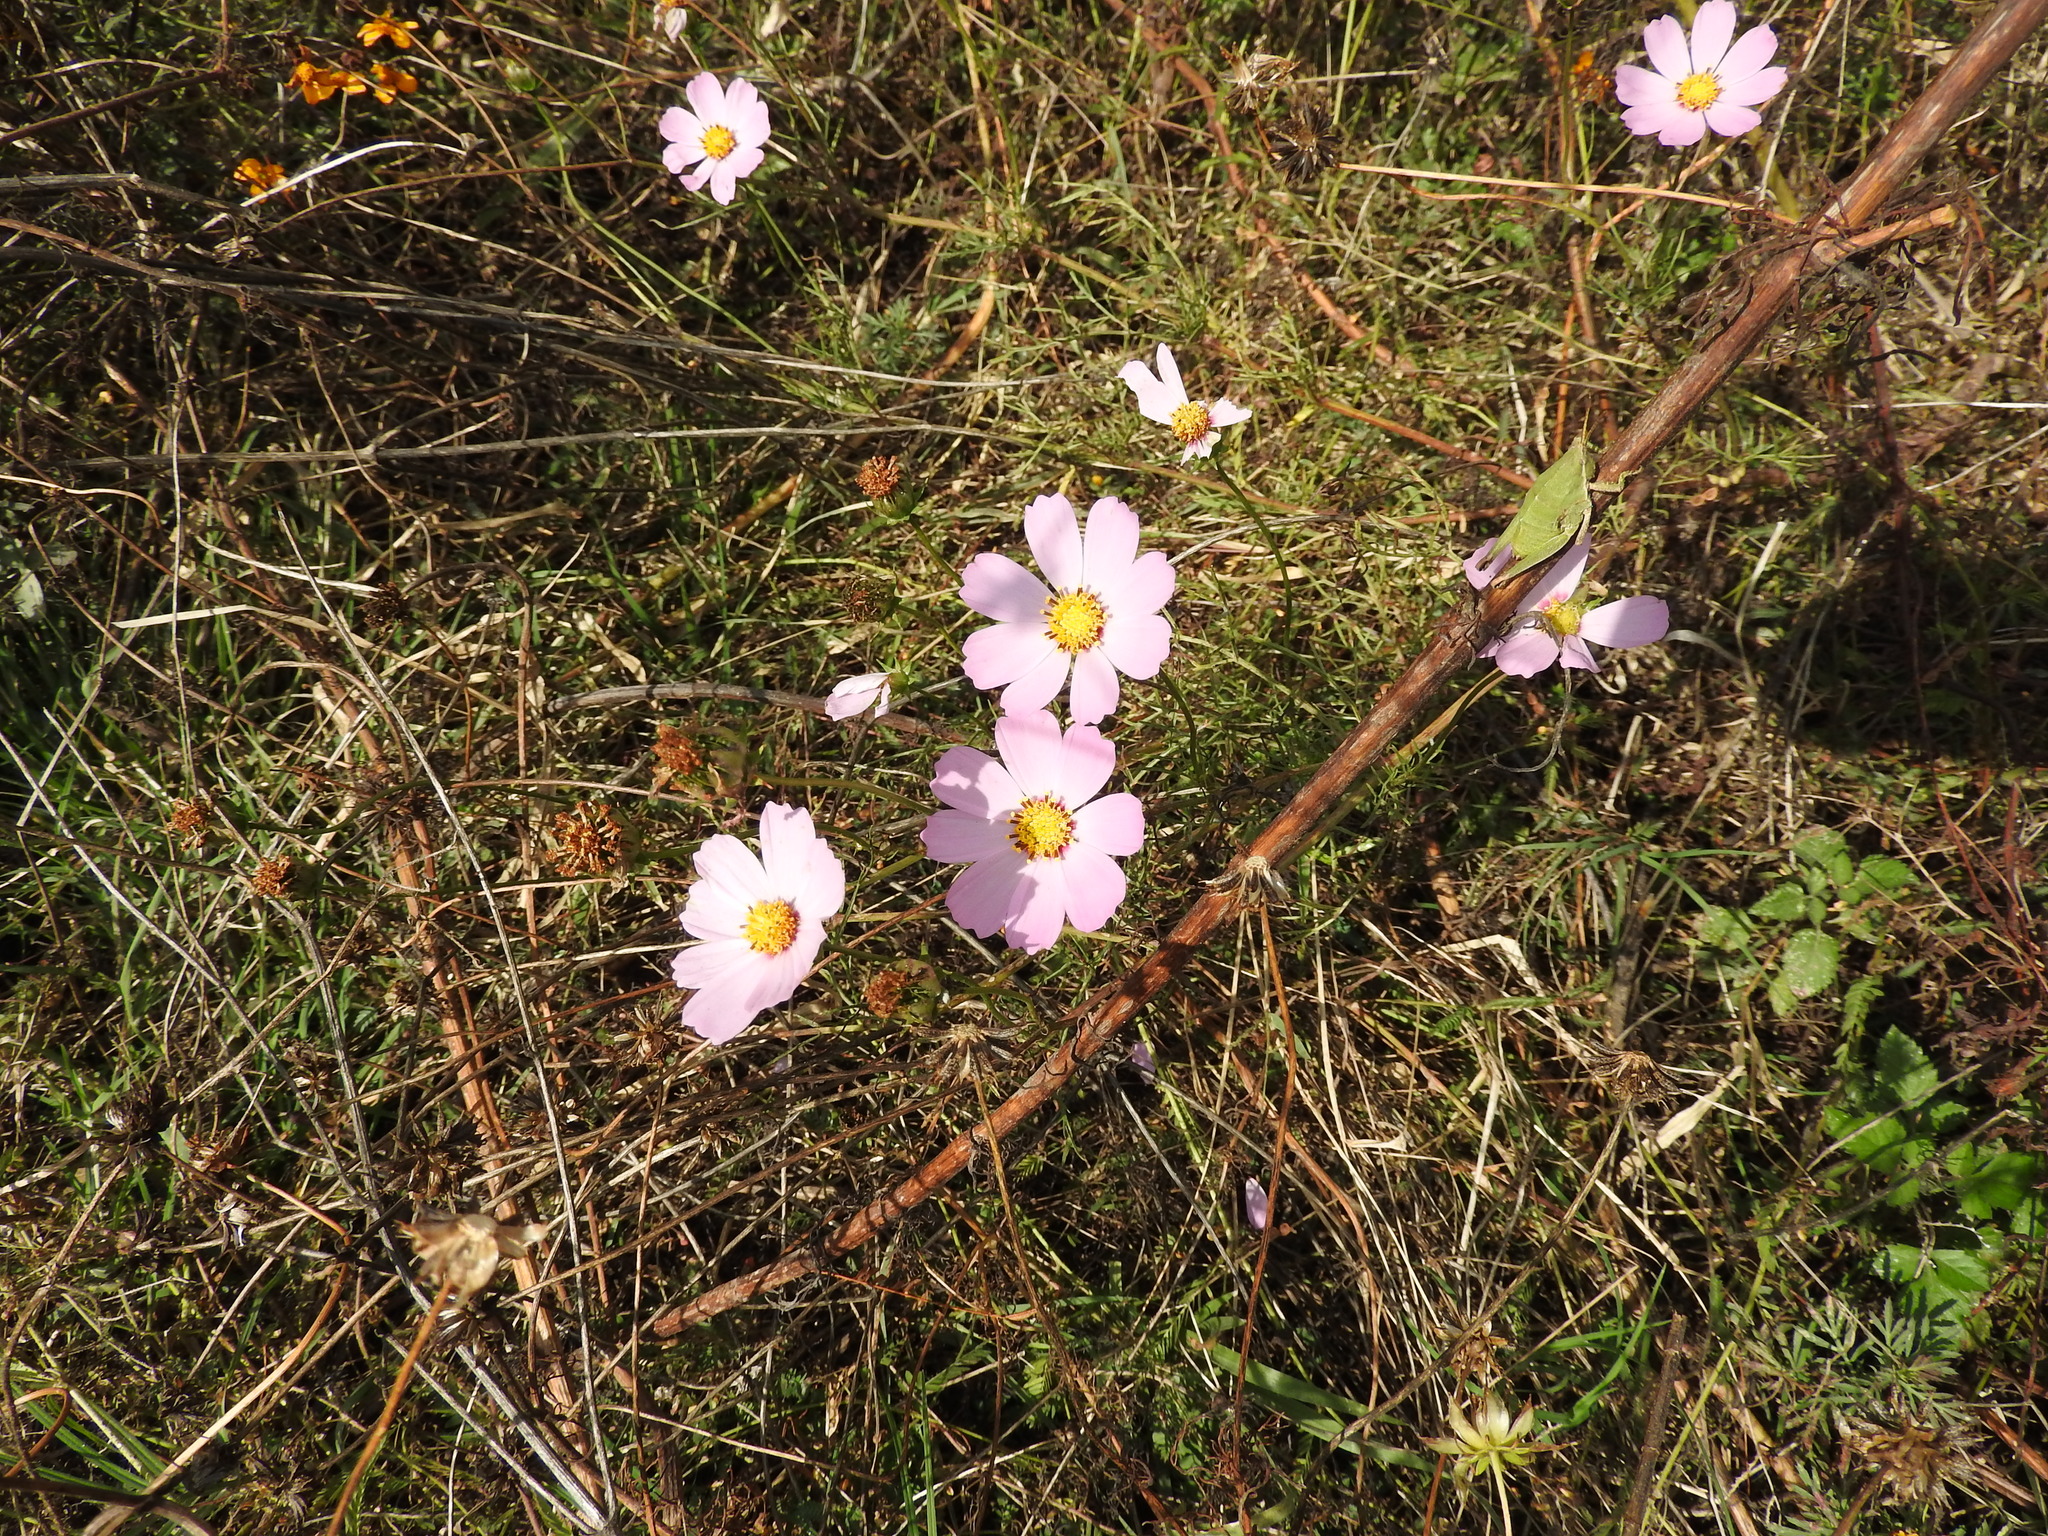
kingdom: Plantae
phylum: Tracheophyta
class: Magnoliopsida
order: Asterales
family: Asteraceae
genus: Cosmos
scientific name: Cosmos bipinnatus
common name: Garden cosmos
